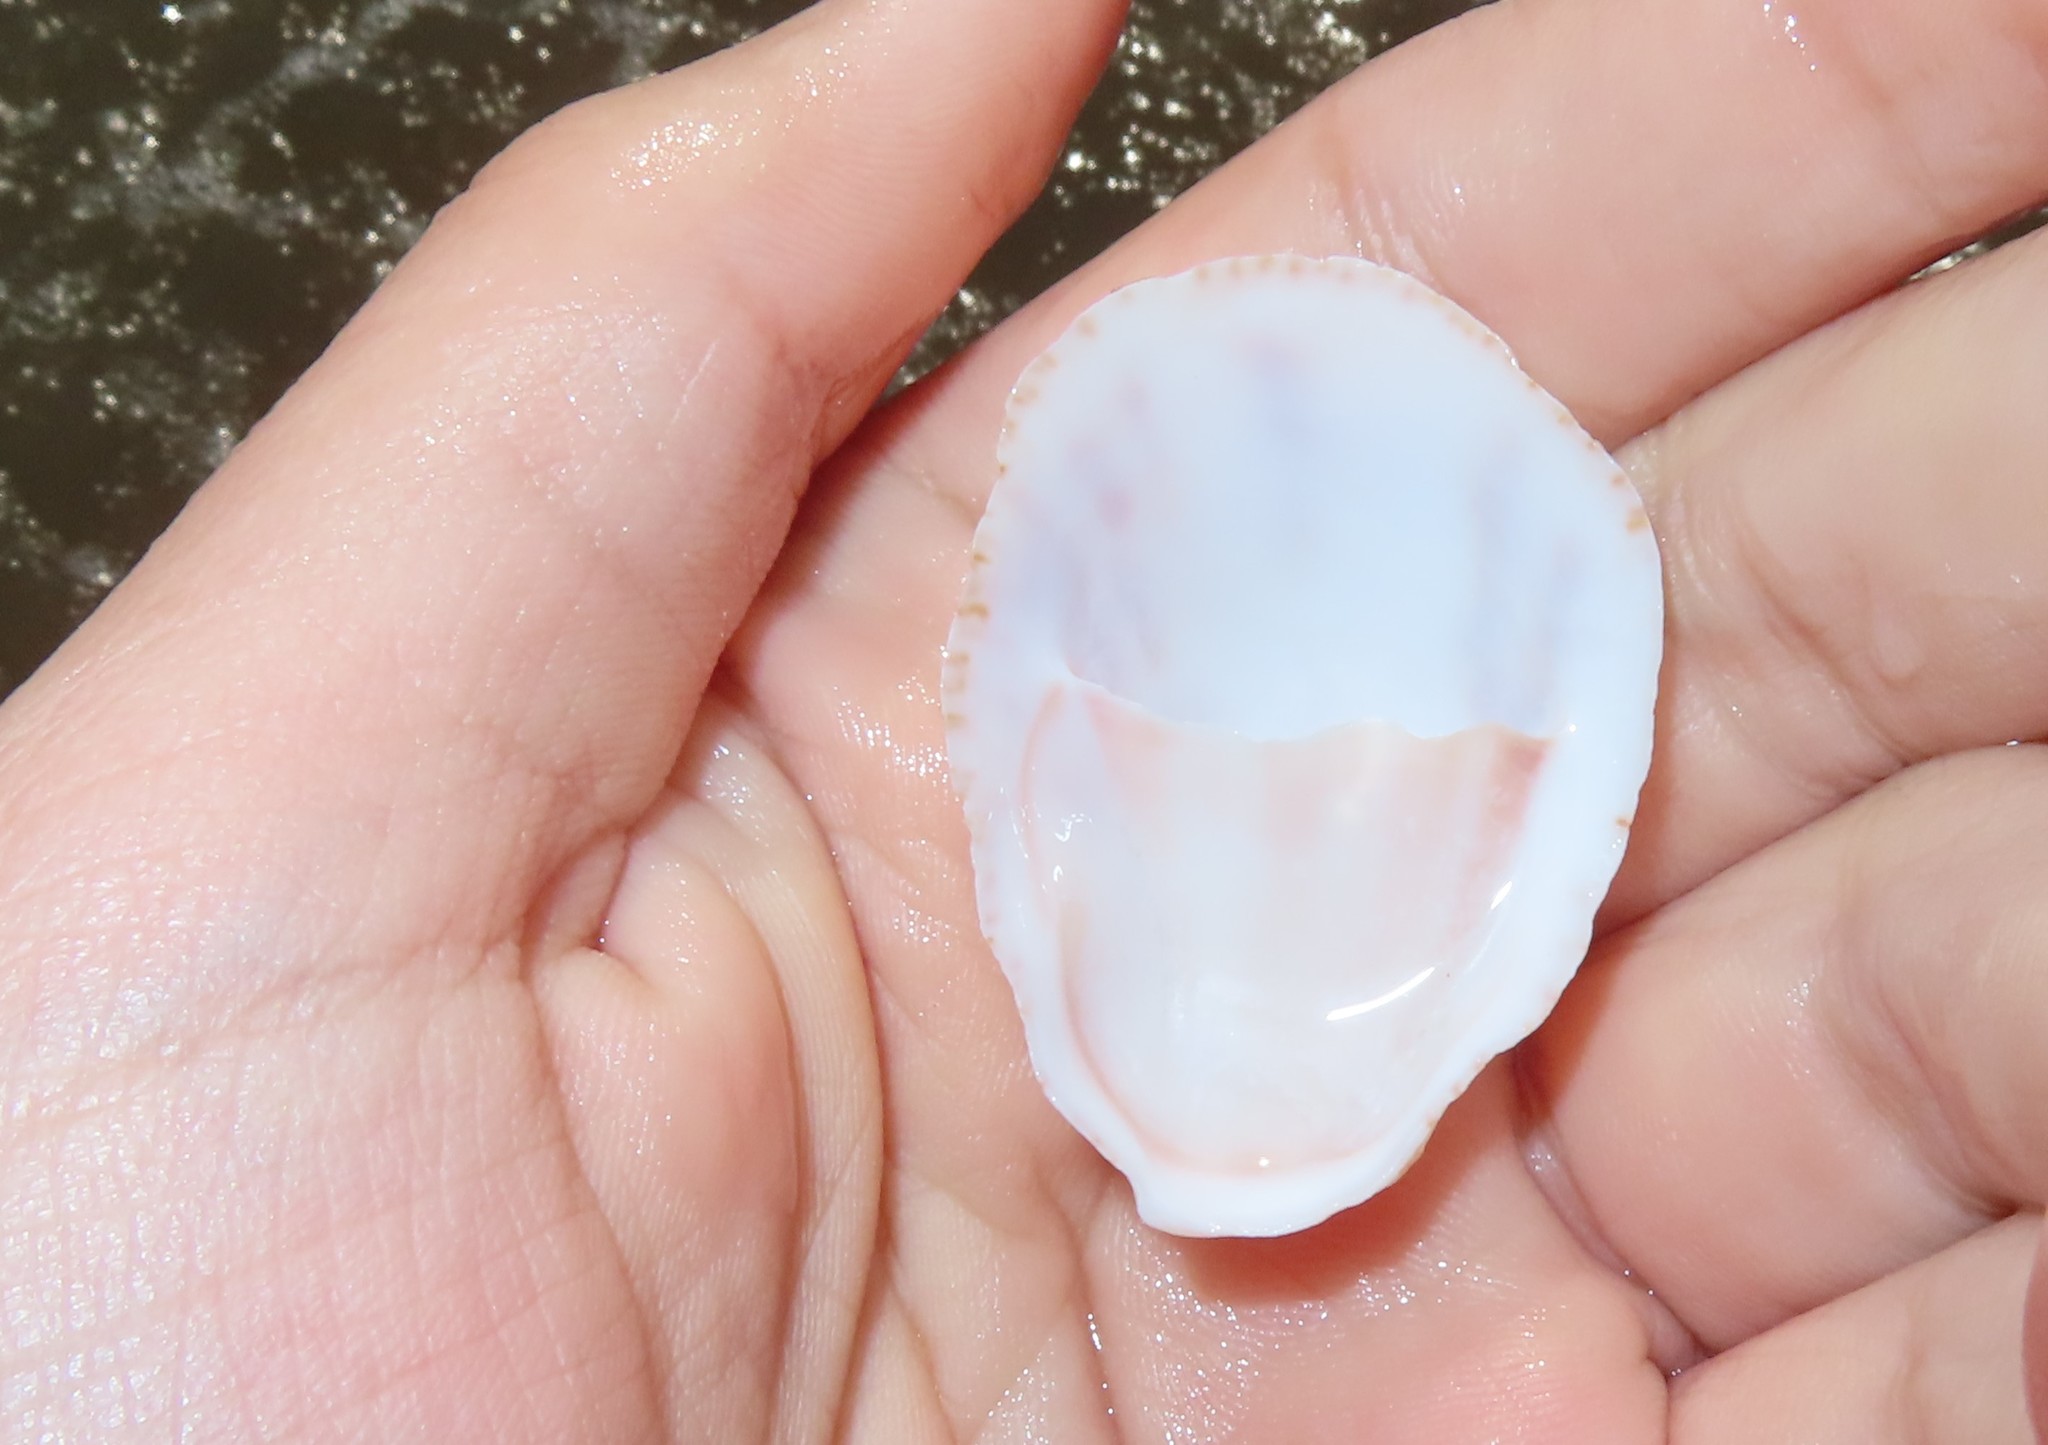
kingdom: Animalia
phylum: Mollusca
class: Gastropoda
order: Littorinimorpha
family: Calyptraeidae
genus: Crepidula
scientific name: Crepidula fornicata
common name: Slipper limpet
